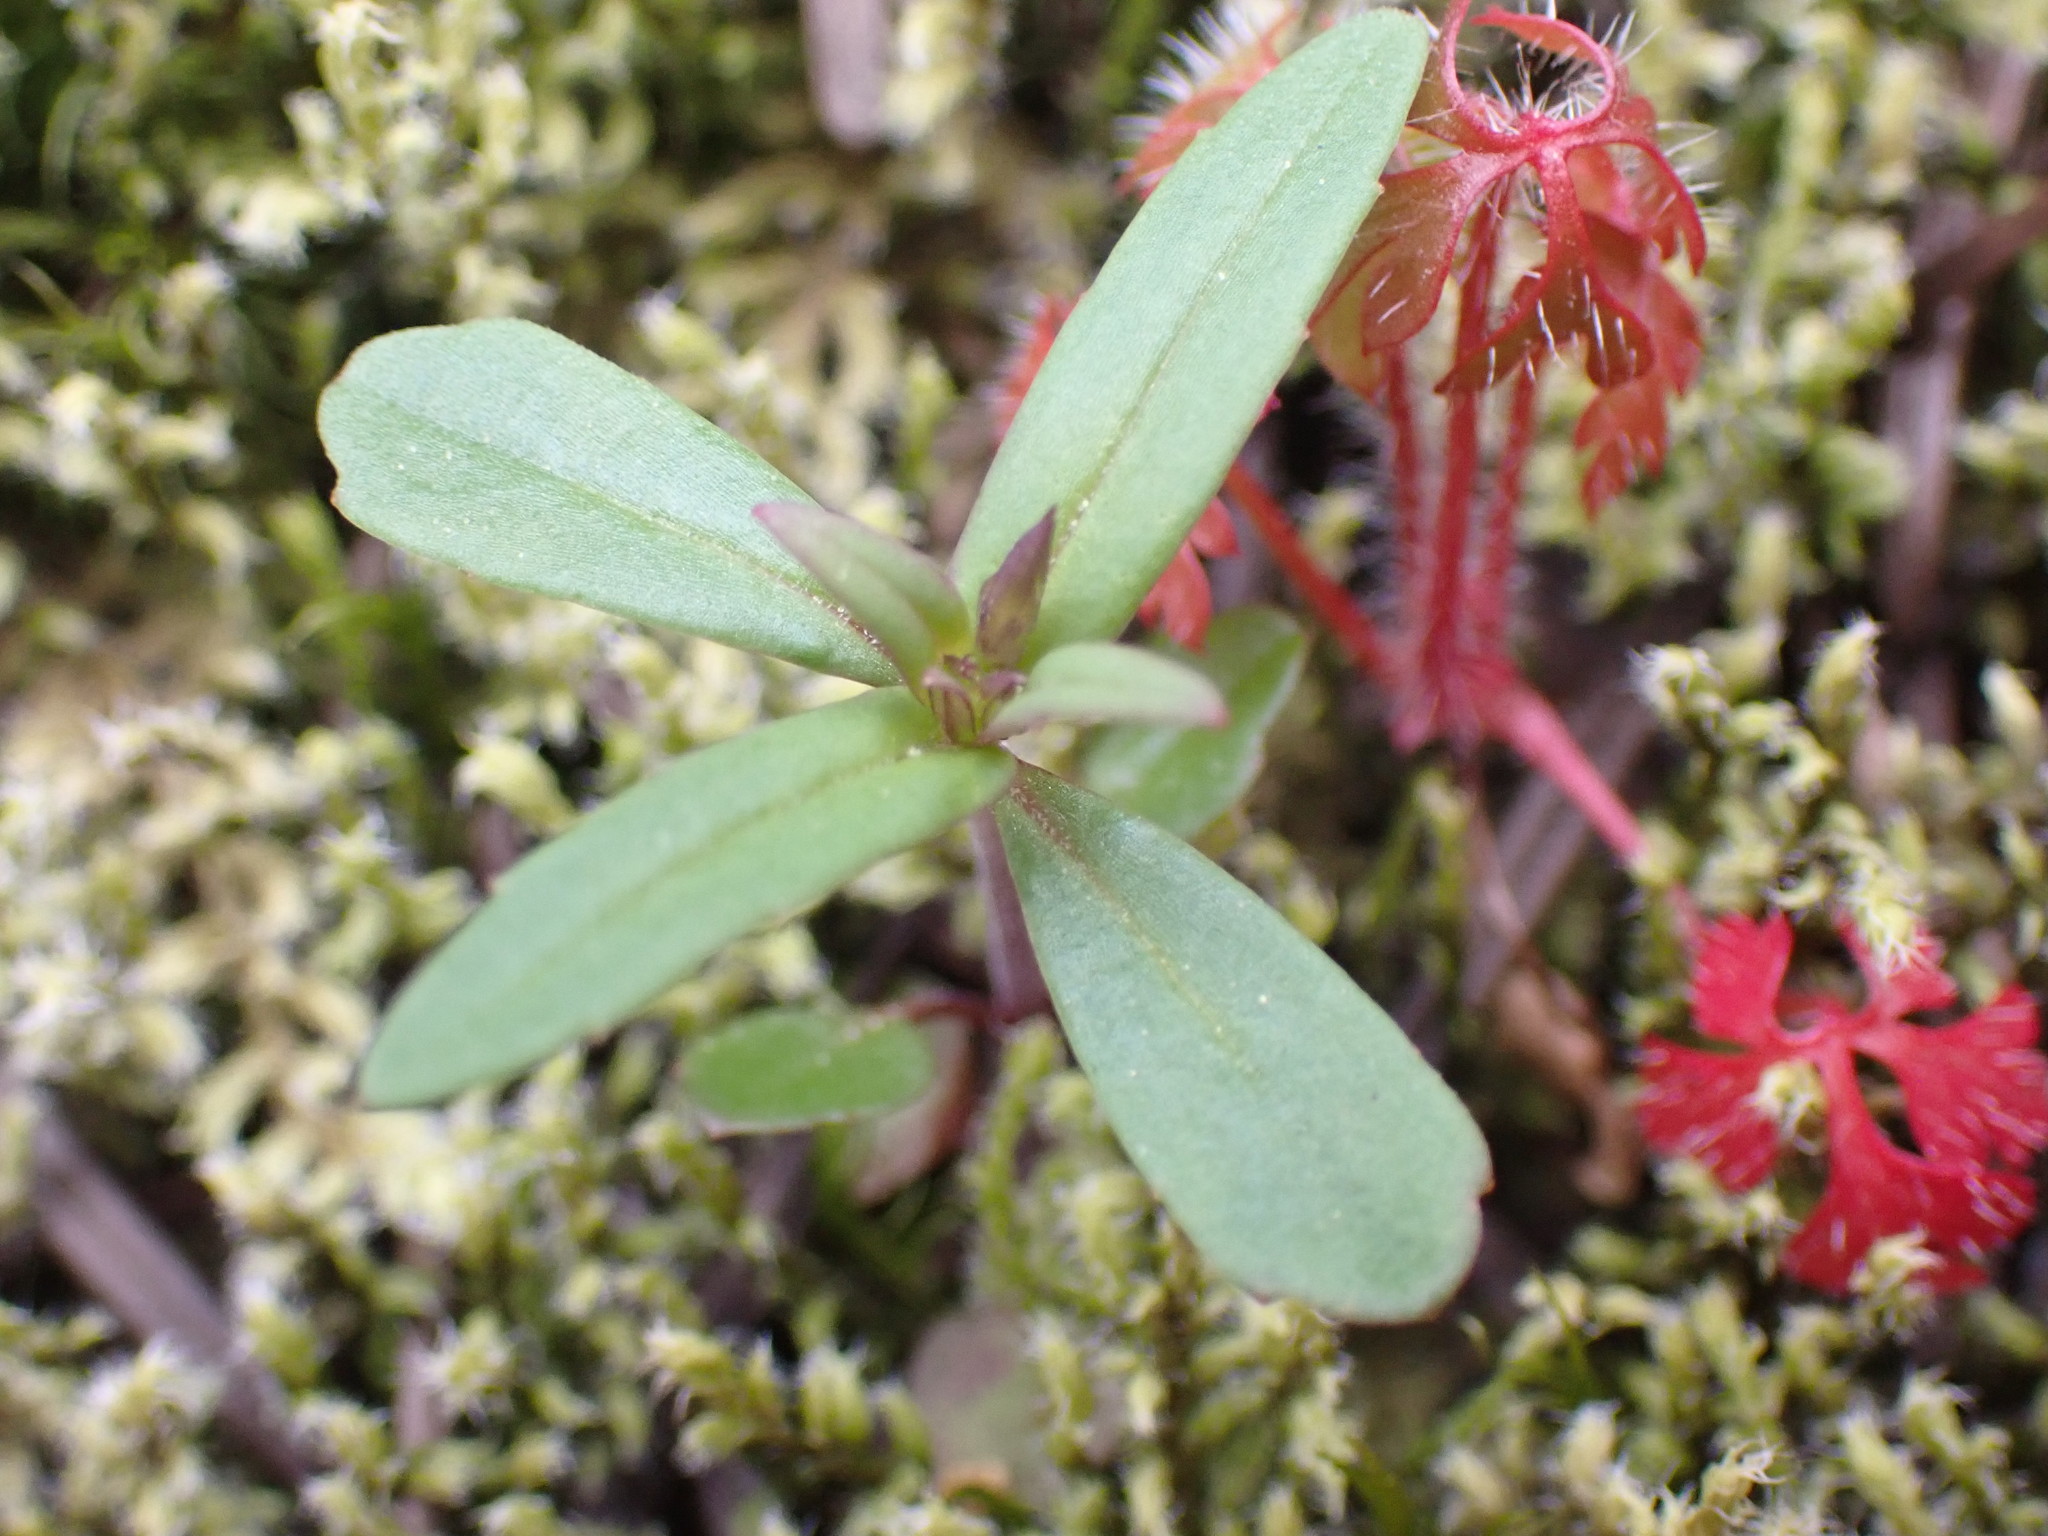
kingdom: Plantae
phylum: Tracheophyta
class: Magnoliopsida
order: Lamiales
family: Plantaginaceae
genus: Collinsia
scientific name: Collinsia parviflora
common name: Blue-lips
